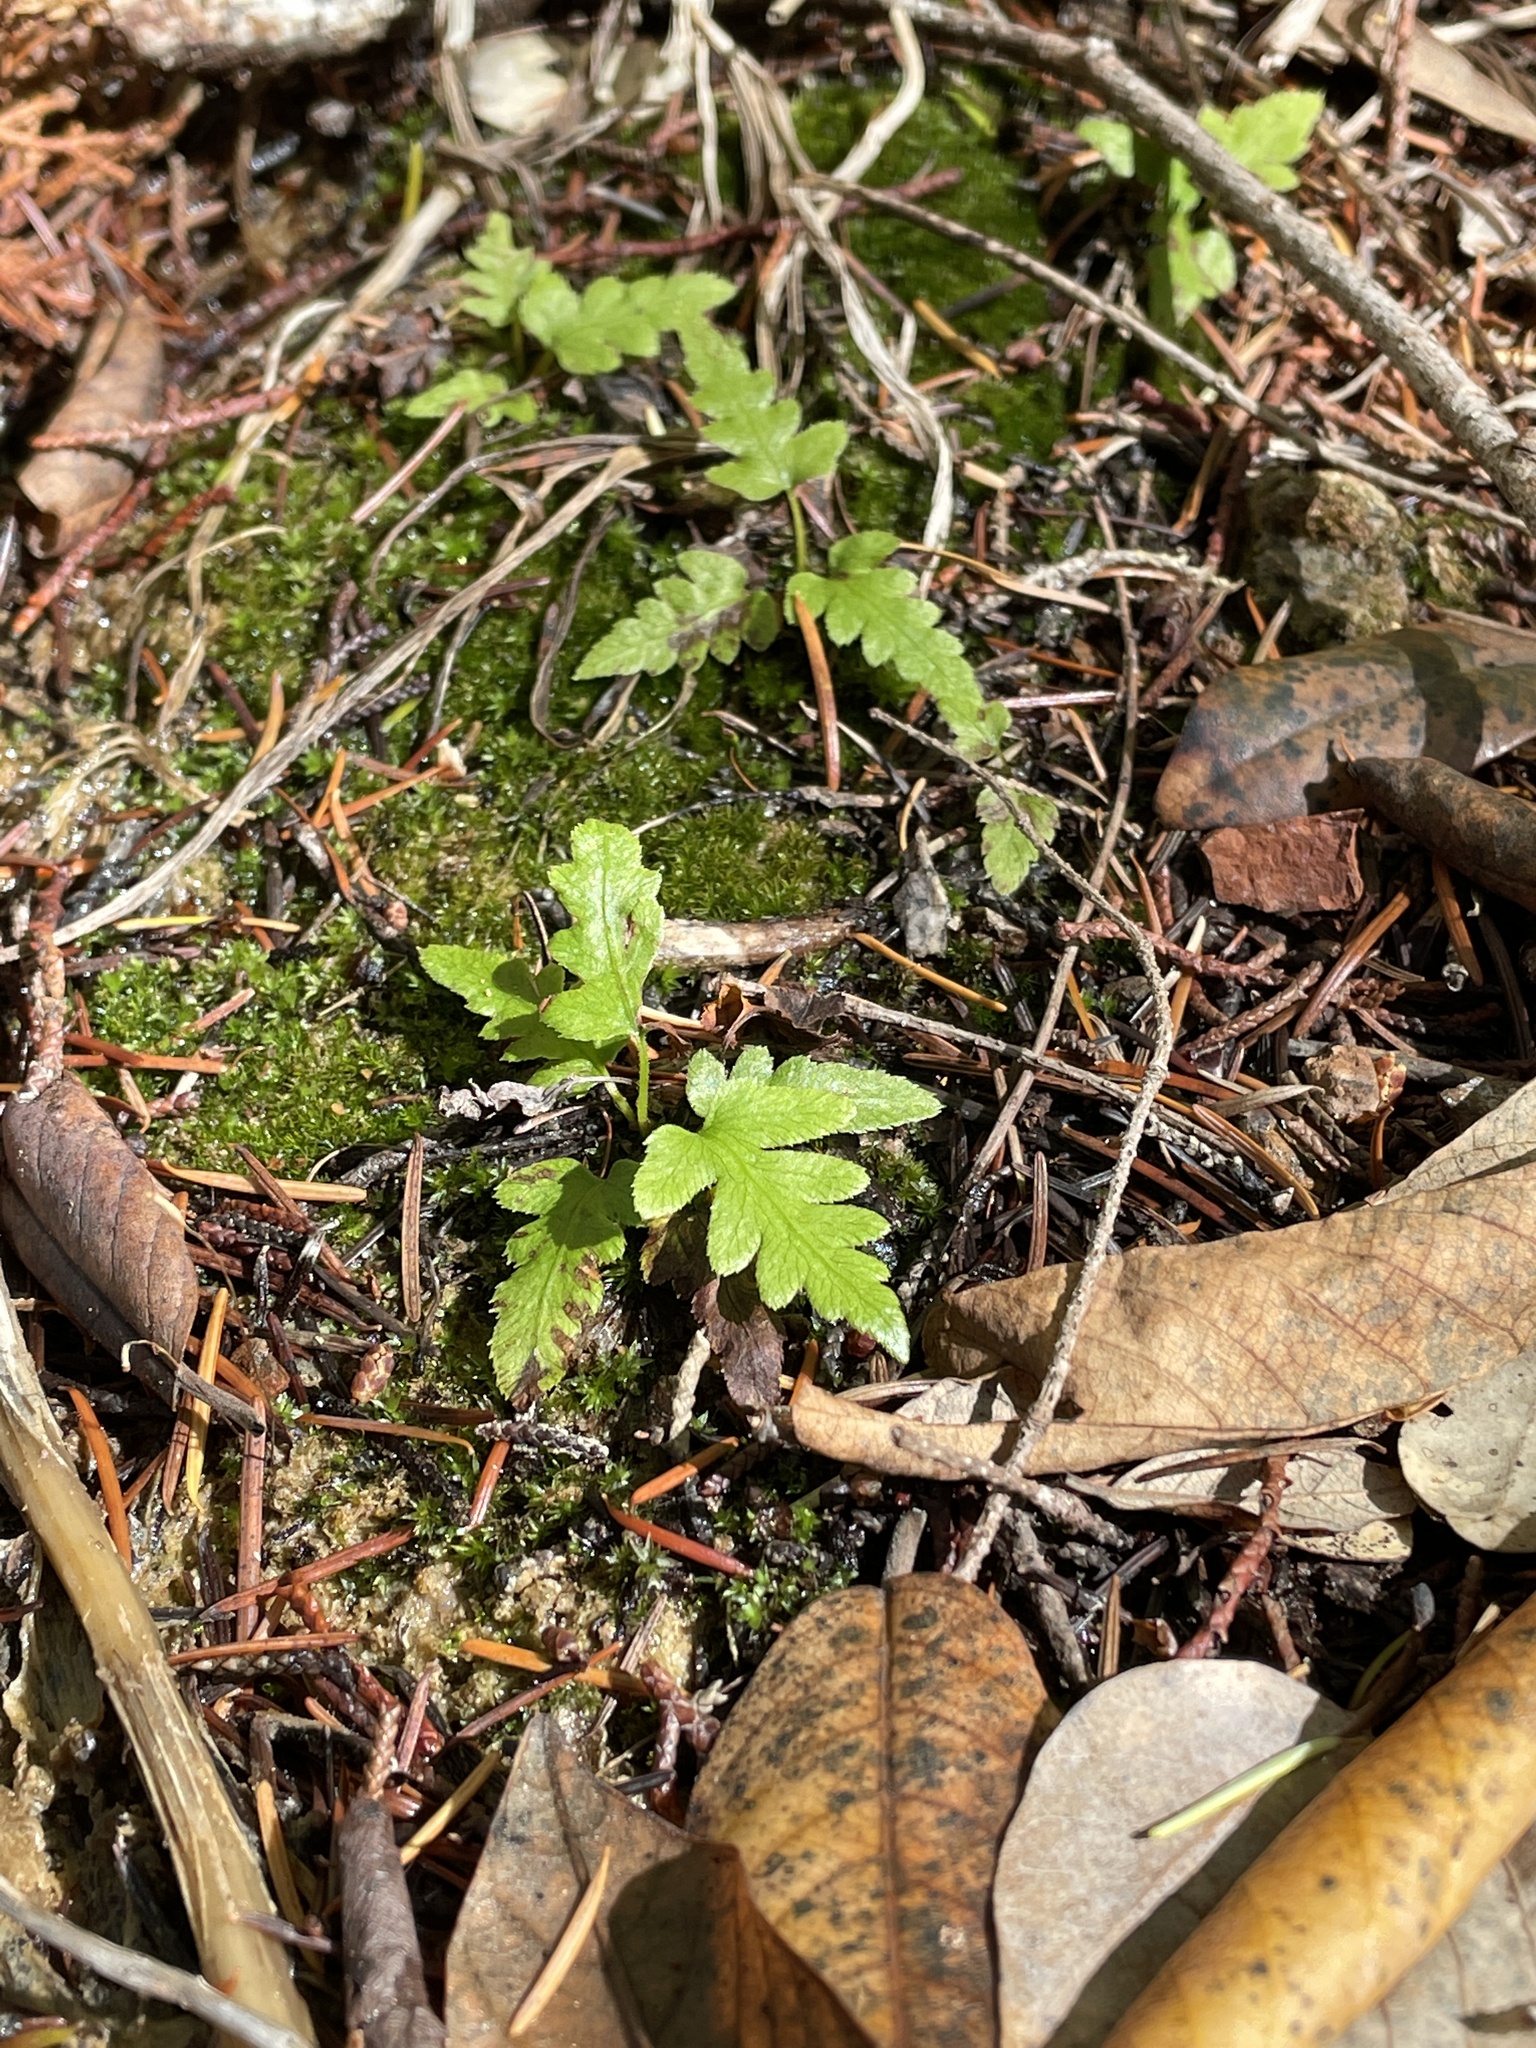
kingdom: Plantae
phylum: Tracheophyta
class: Polypodiopsida
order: Polypodiales
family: Blechnaceae
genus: Woodwardia
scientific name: Woodwardia fimbriata
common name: Giant chain fern
